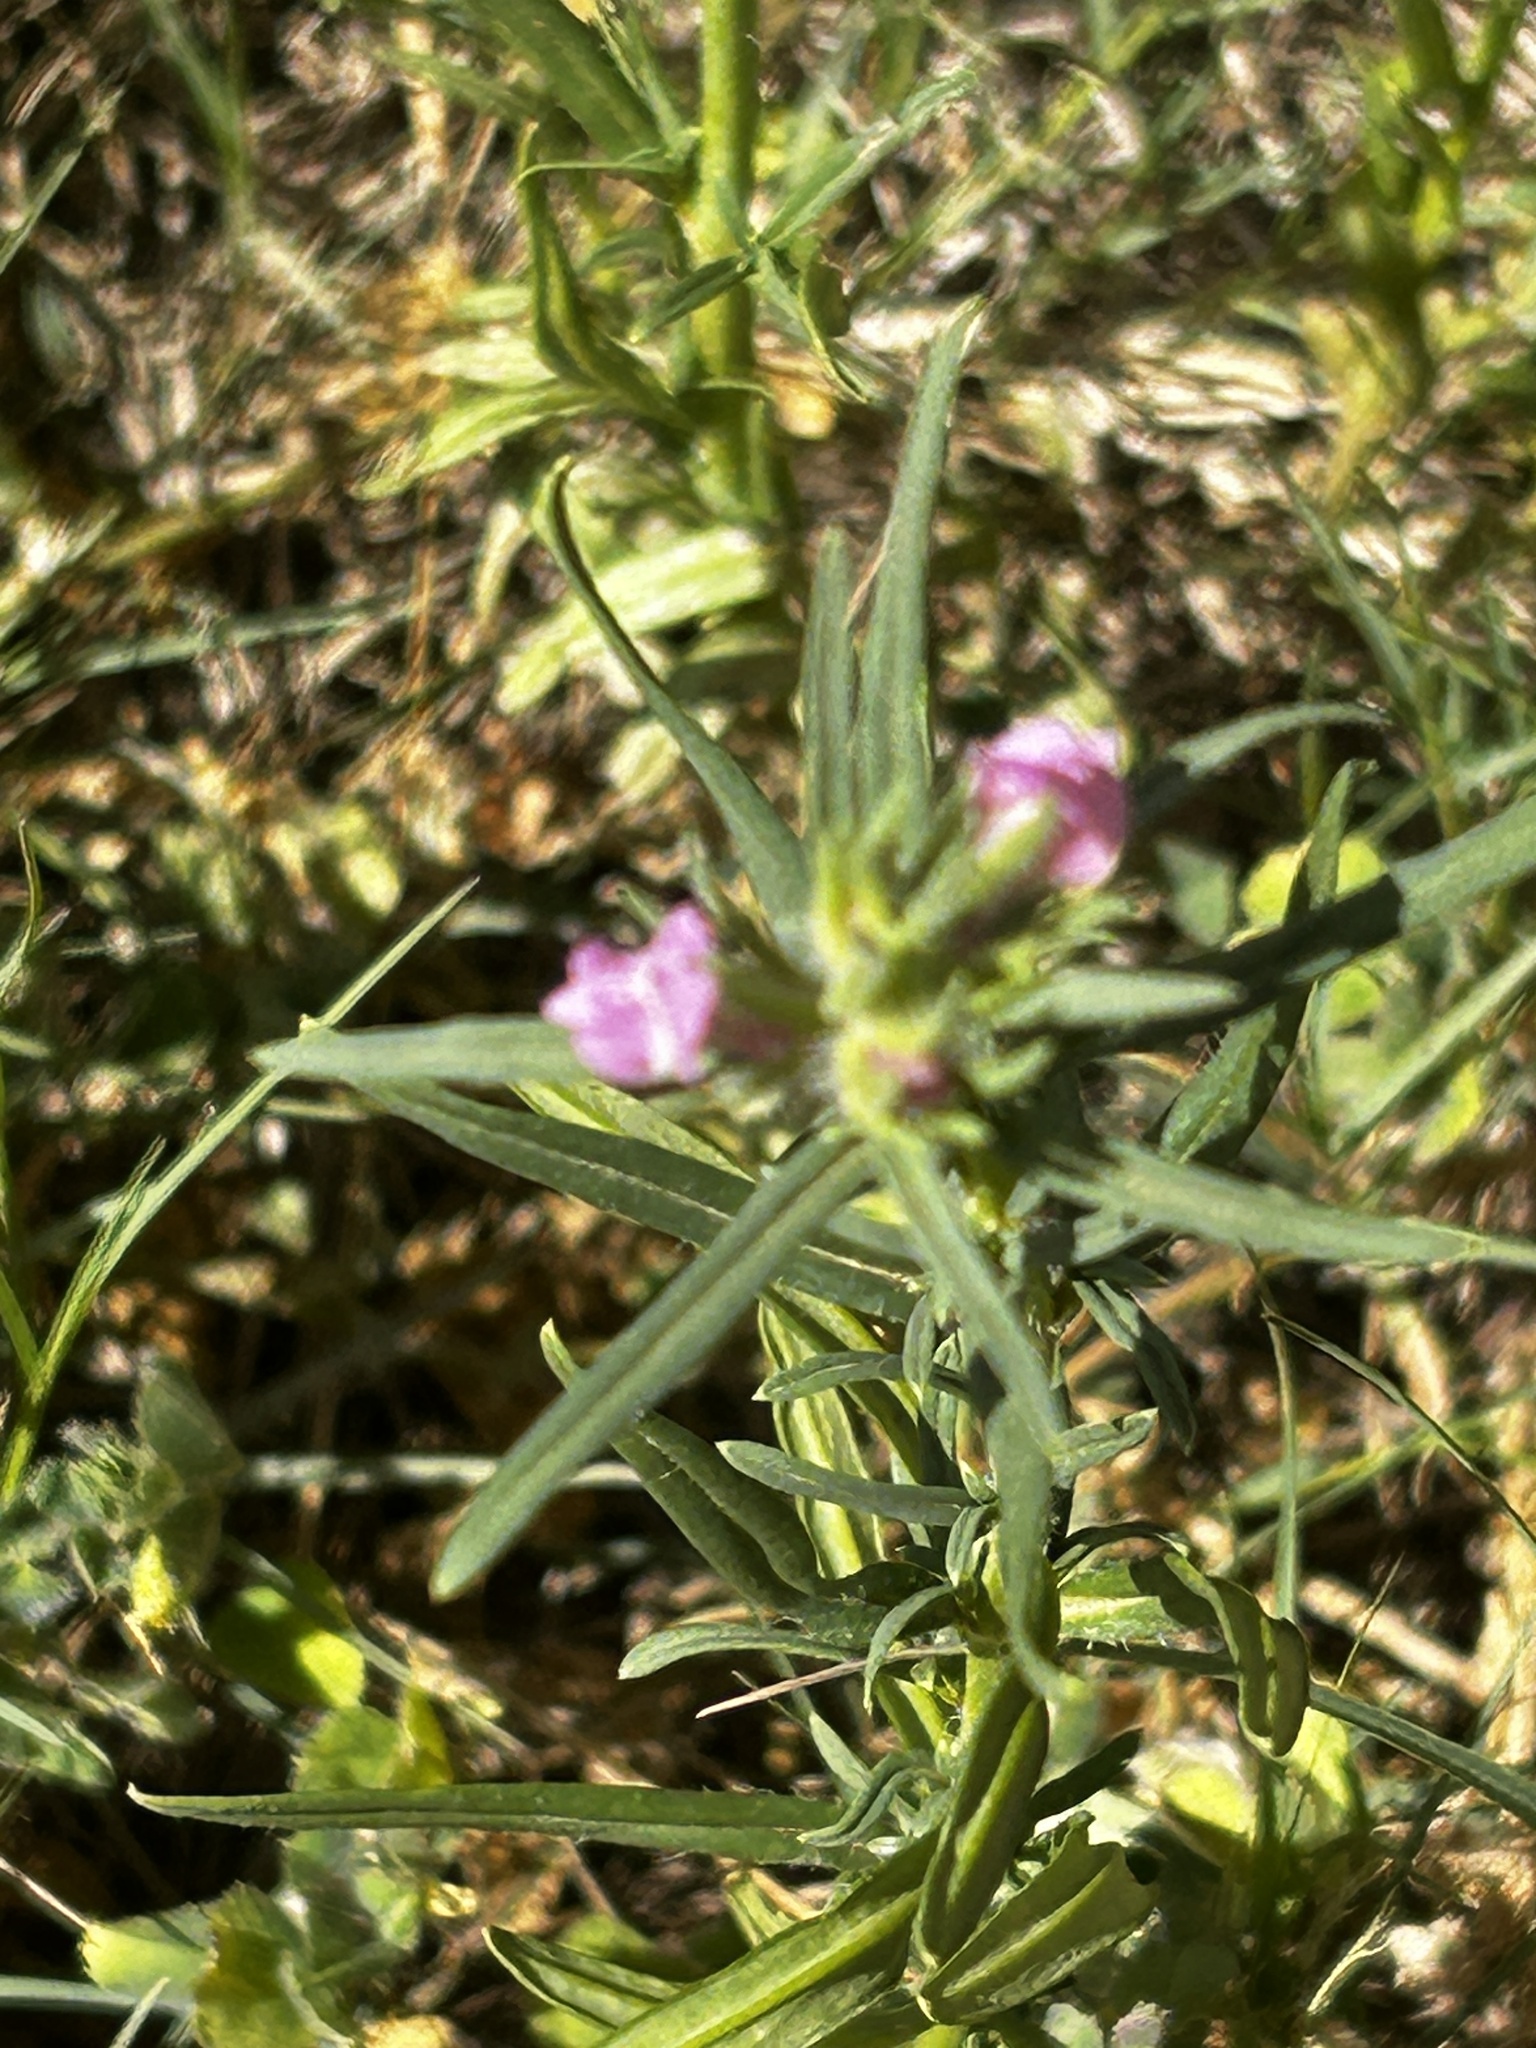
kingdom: Plantae
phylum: Tracheophyta
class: Magnoliopsida
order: Lamiales
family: Plantaginaceae
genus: Misopates
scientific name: Misopates orontium
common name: Weasel's-snout
